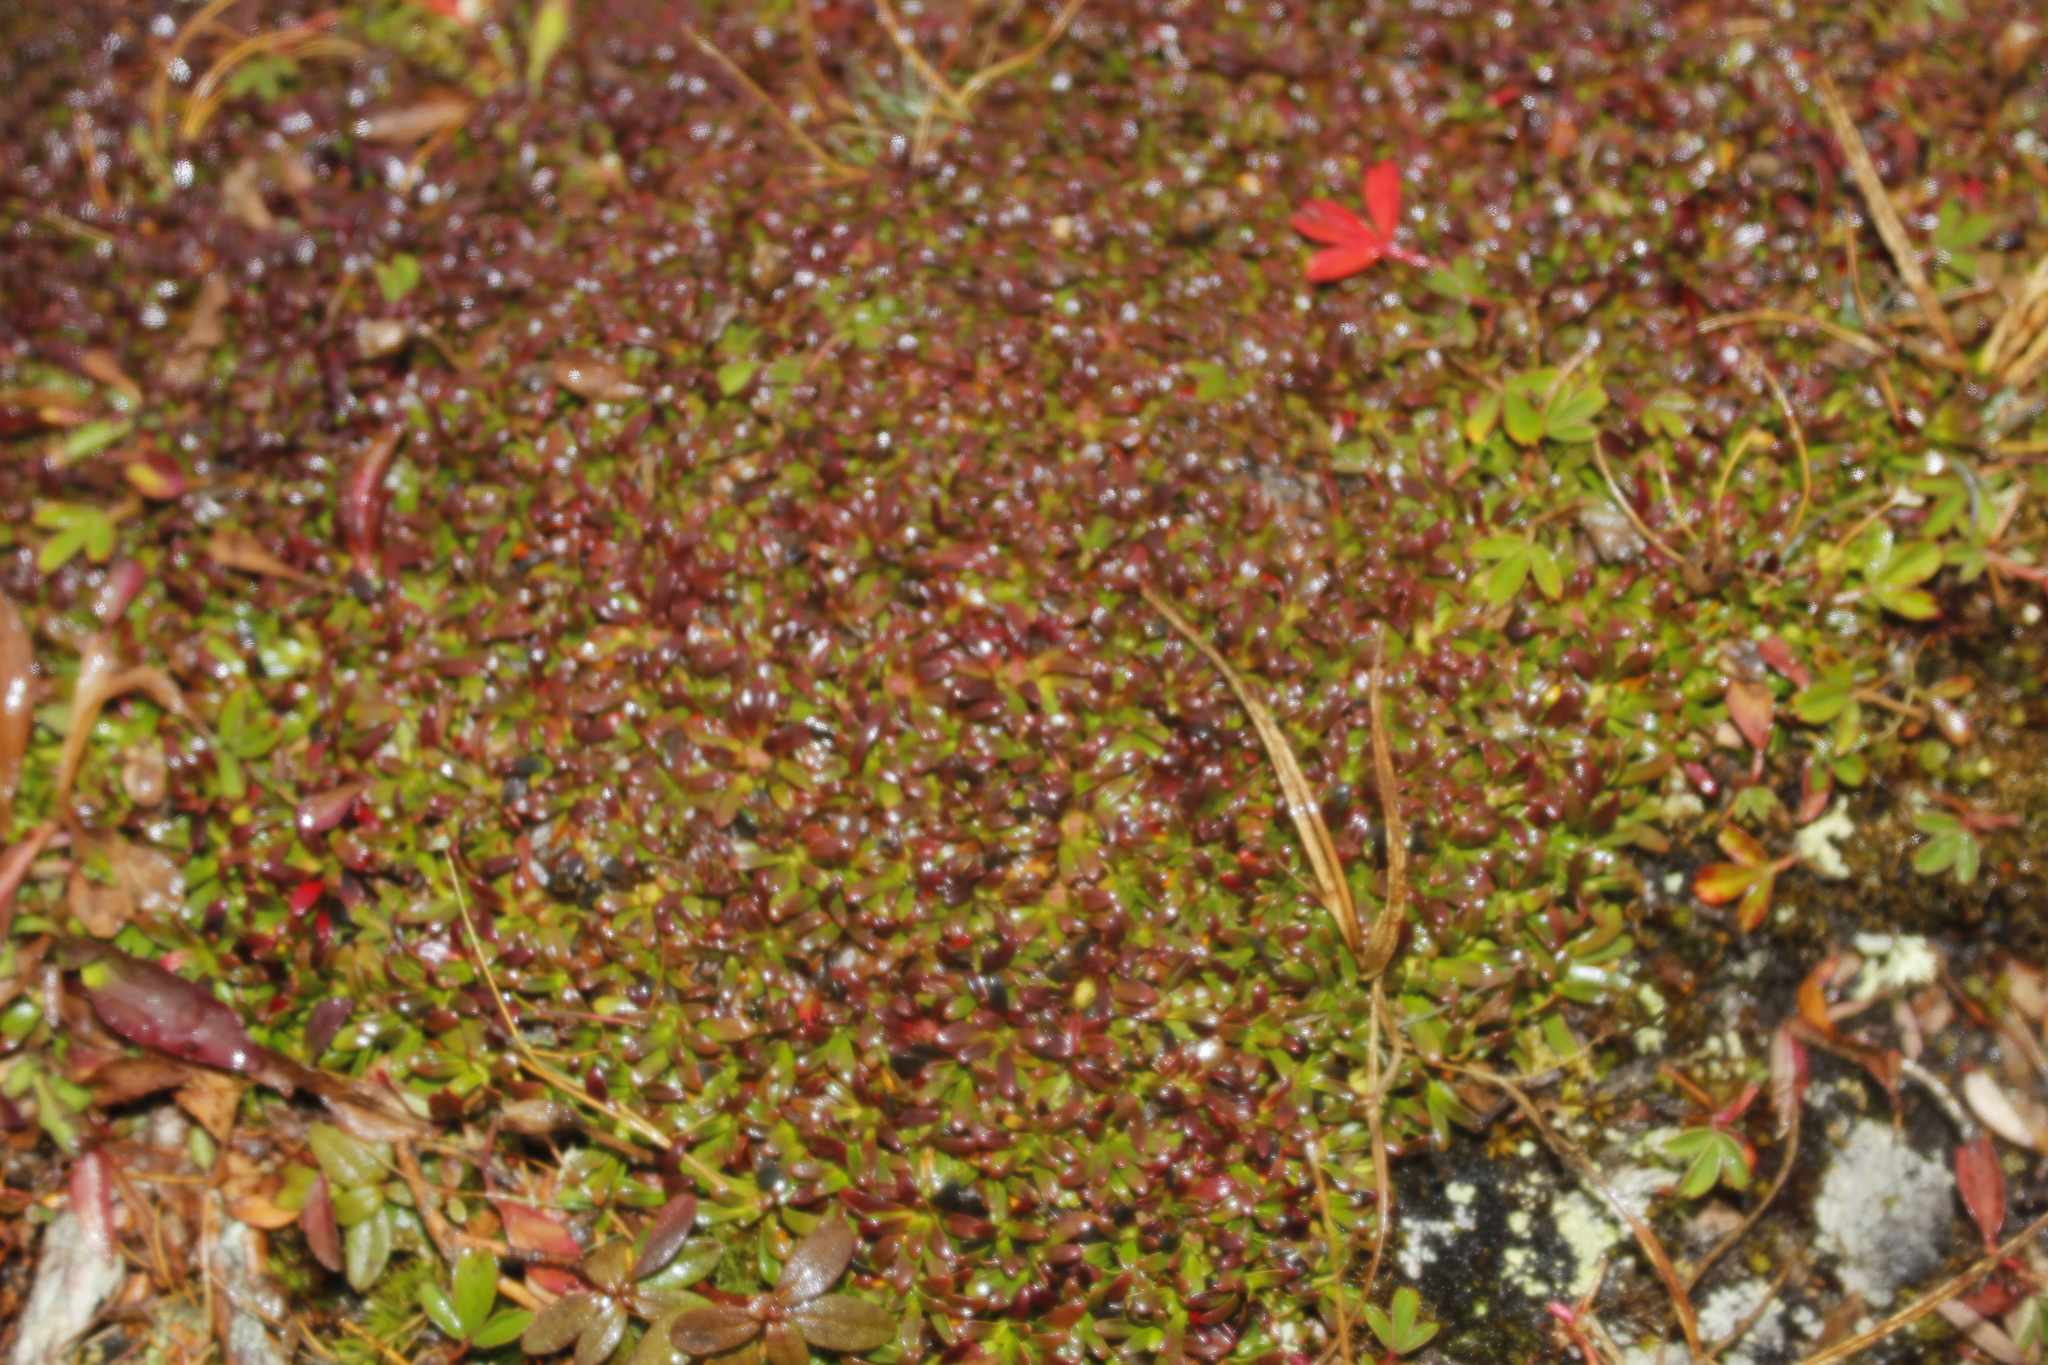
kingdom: Plantae
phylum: Tracheophyta
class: Magnoliopsida
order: Ericales
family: Diapensiaceae
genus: Diapensia
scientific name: Diapensia lapponica
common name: Diapensia
